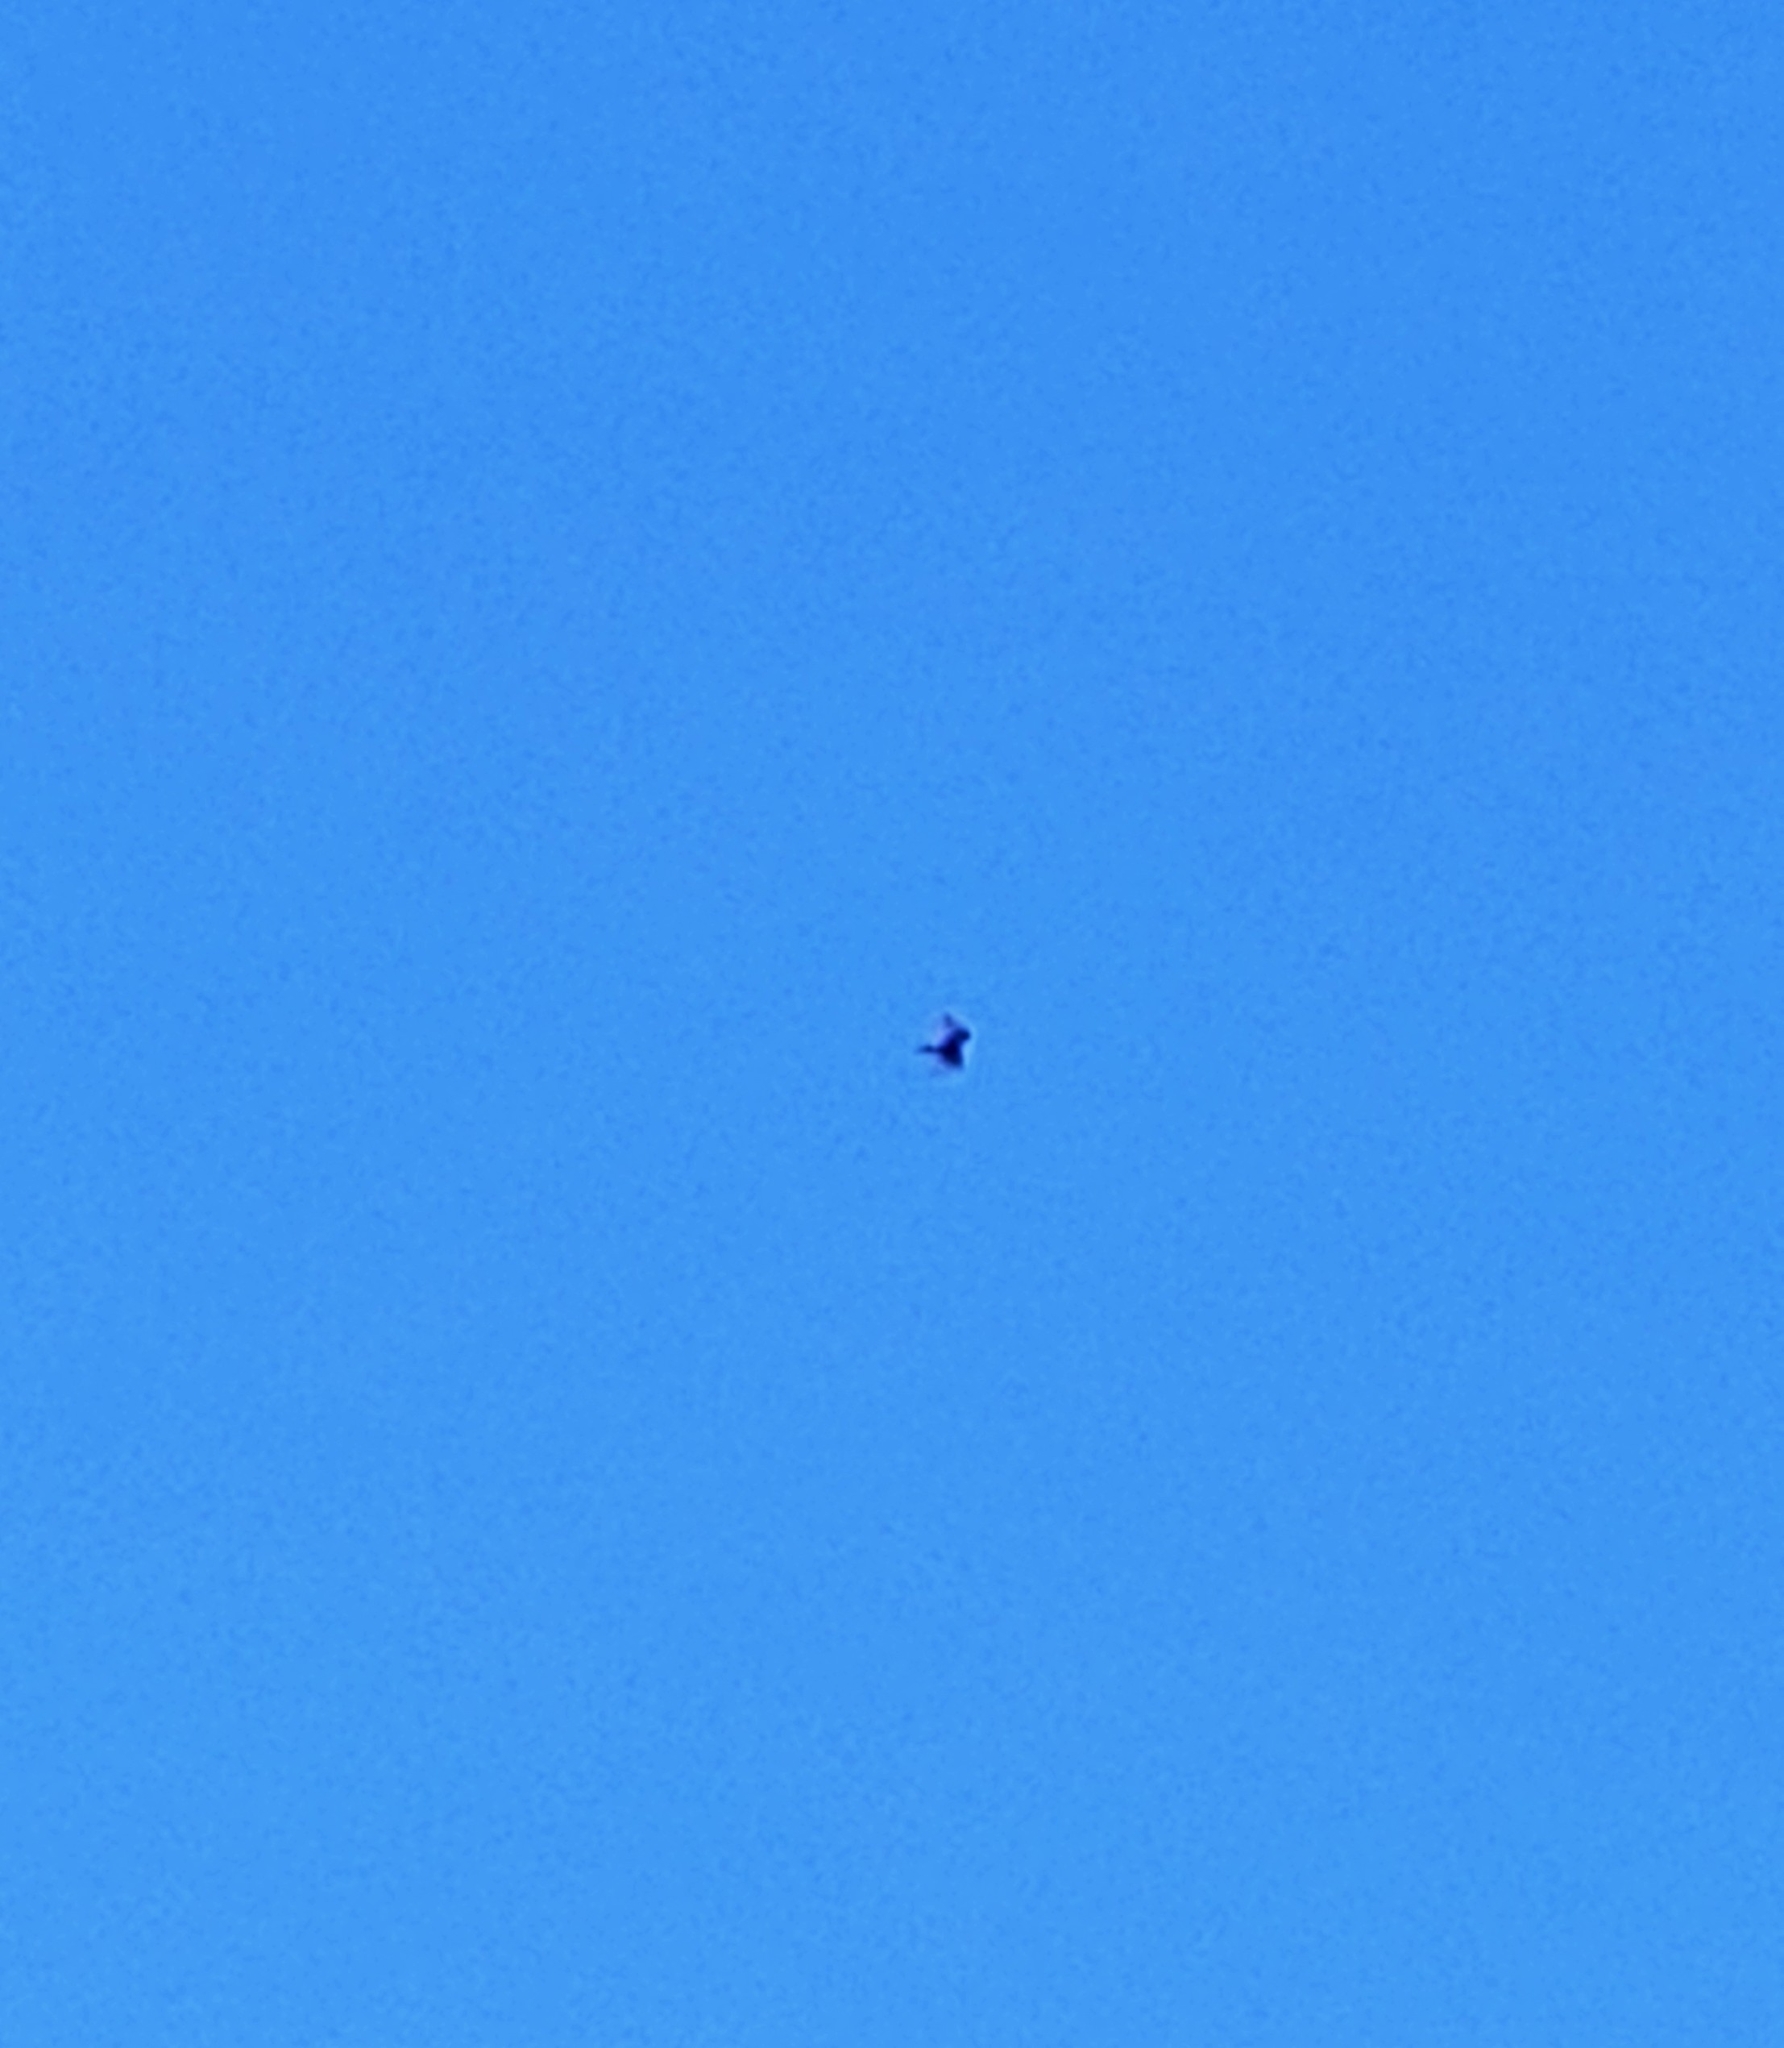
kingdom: Animalia
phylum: Chordata
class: Aves
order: Accipitriformes
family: Cathartidae
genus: Cathartes
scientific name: Cathartes aura
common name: Turkey vulture
